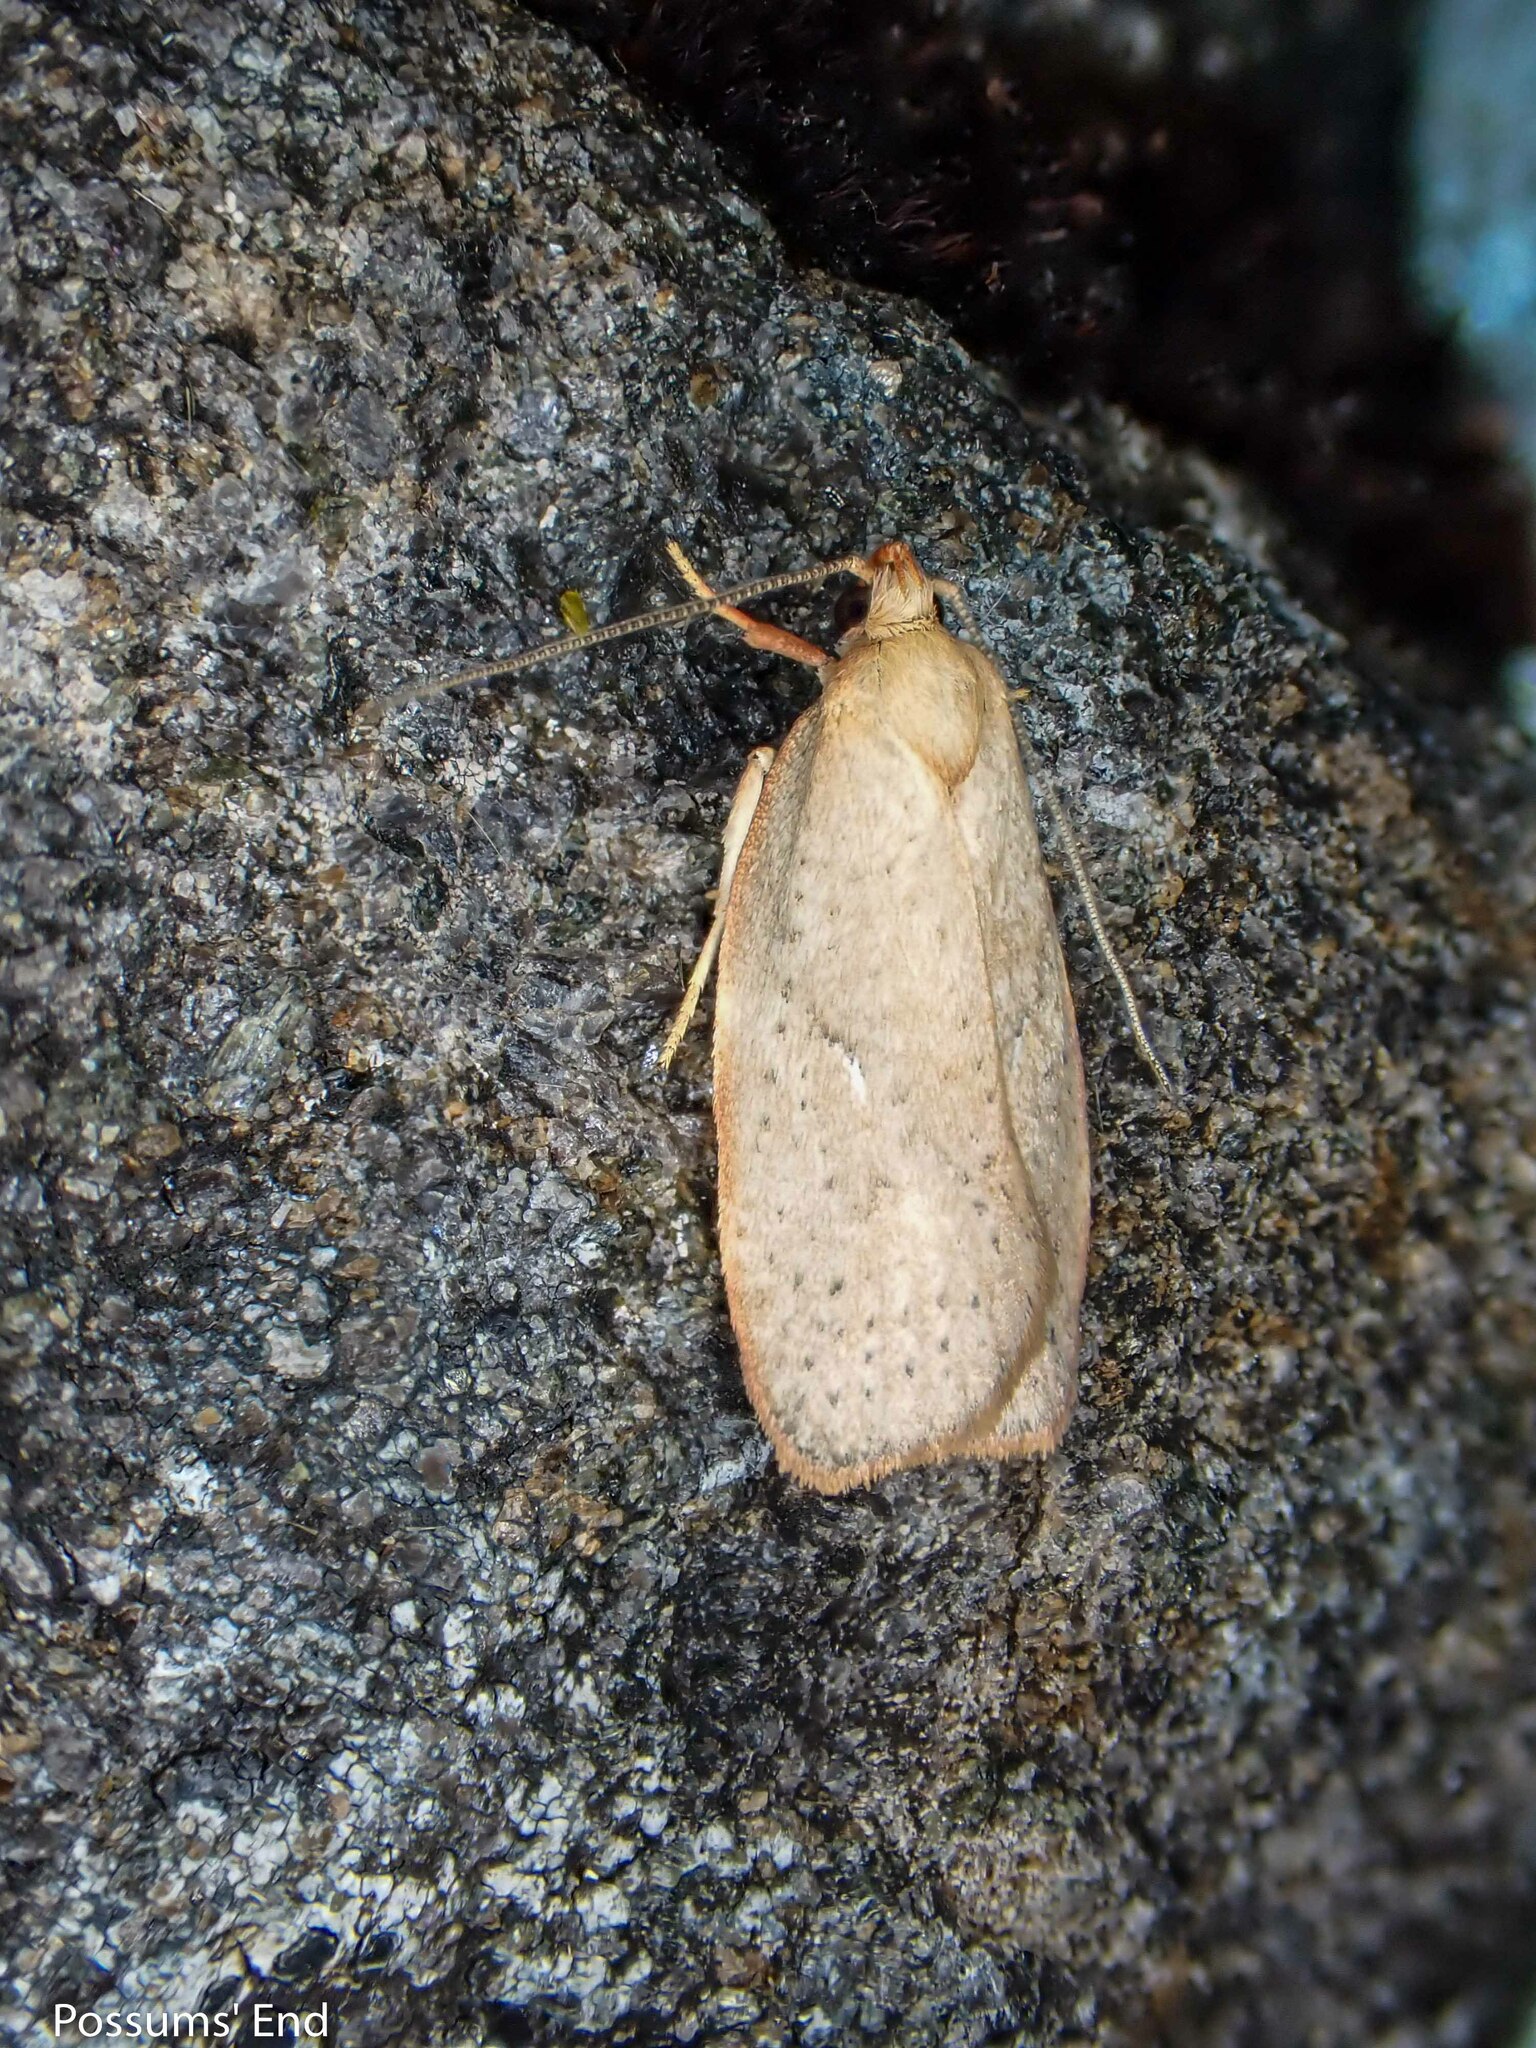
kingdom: Animalia
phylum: Arthropoda
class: Insecta
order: Lepidoptera
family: Oecophoridae
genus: Proteodes
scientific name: Proteodes carnifex
